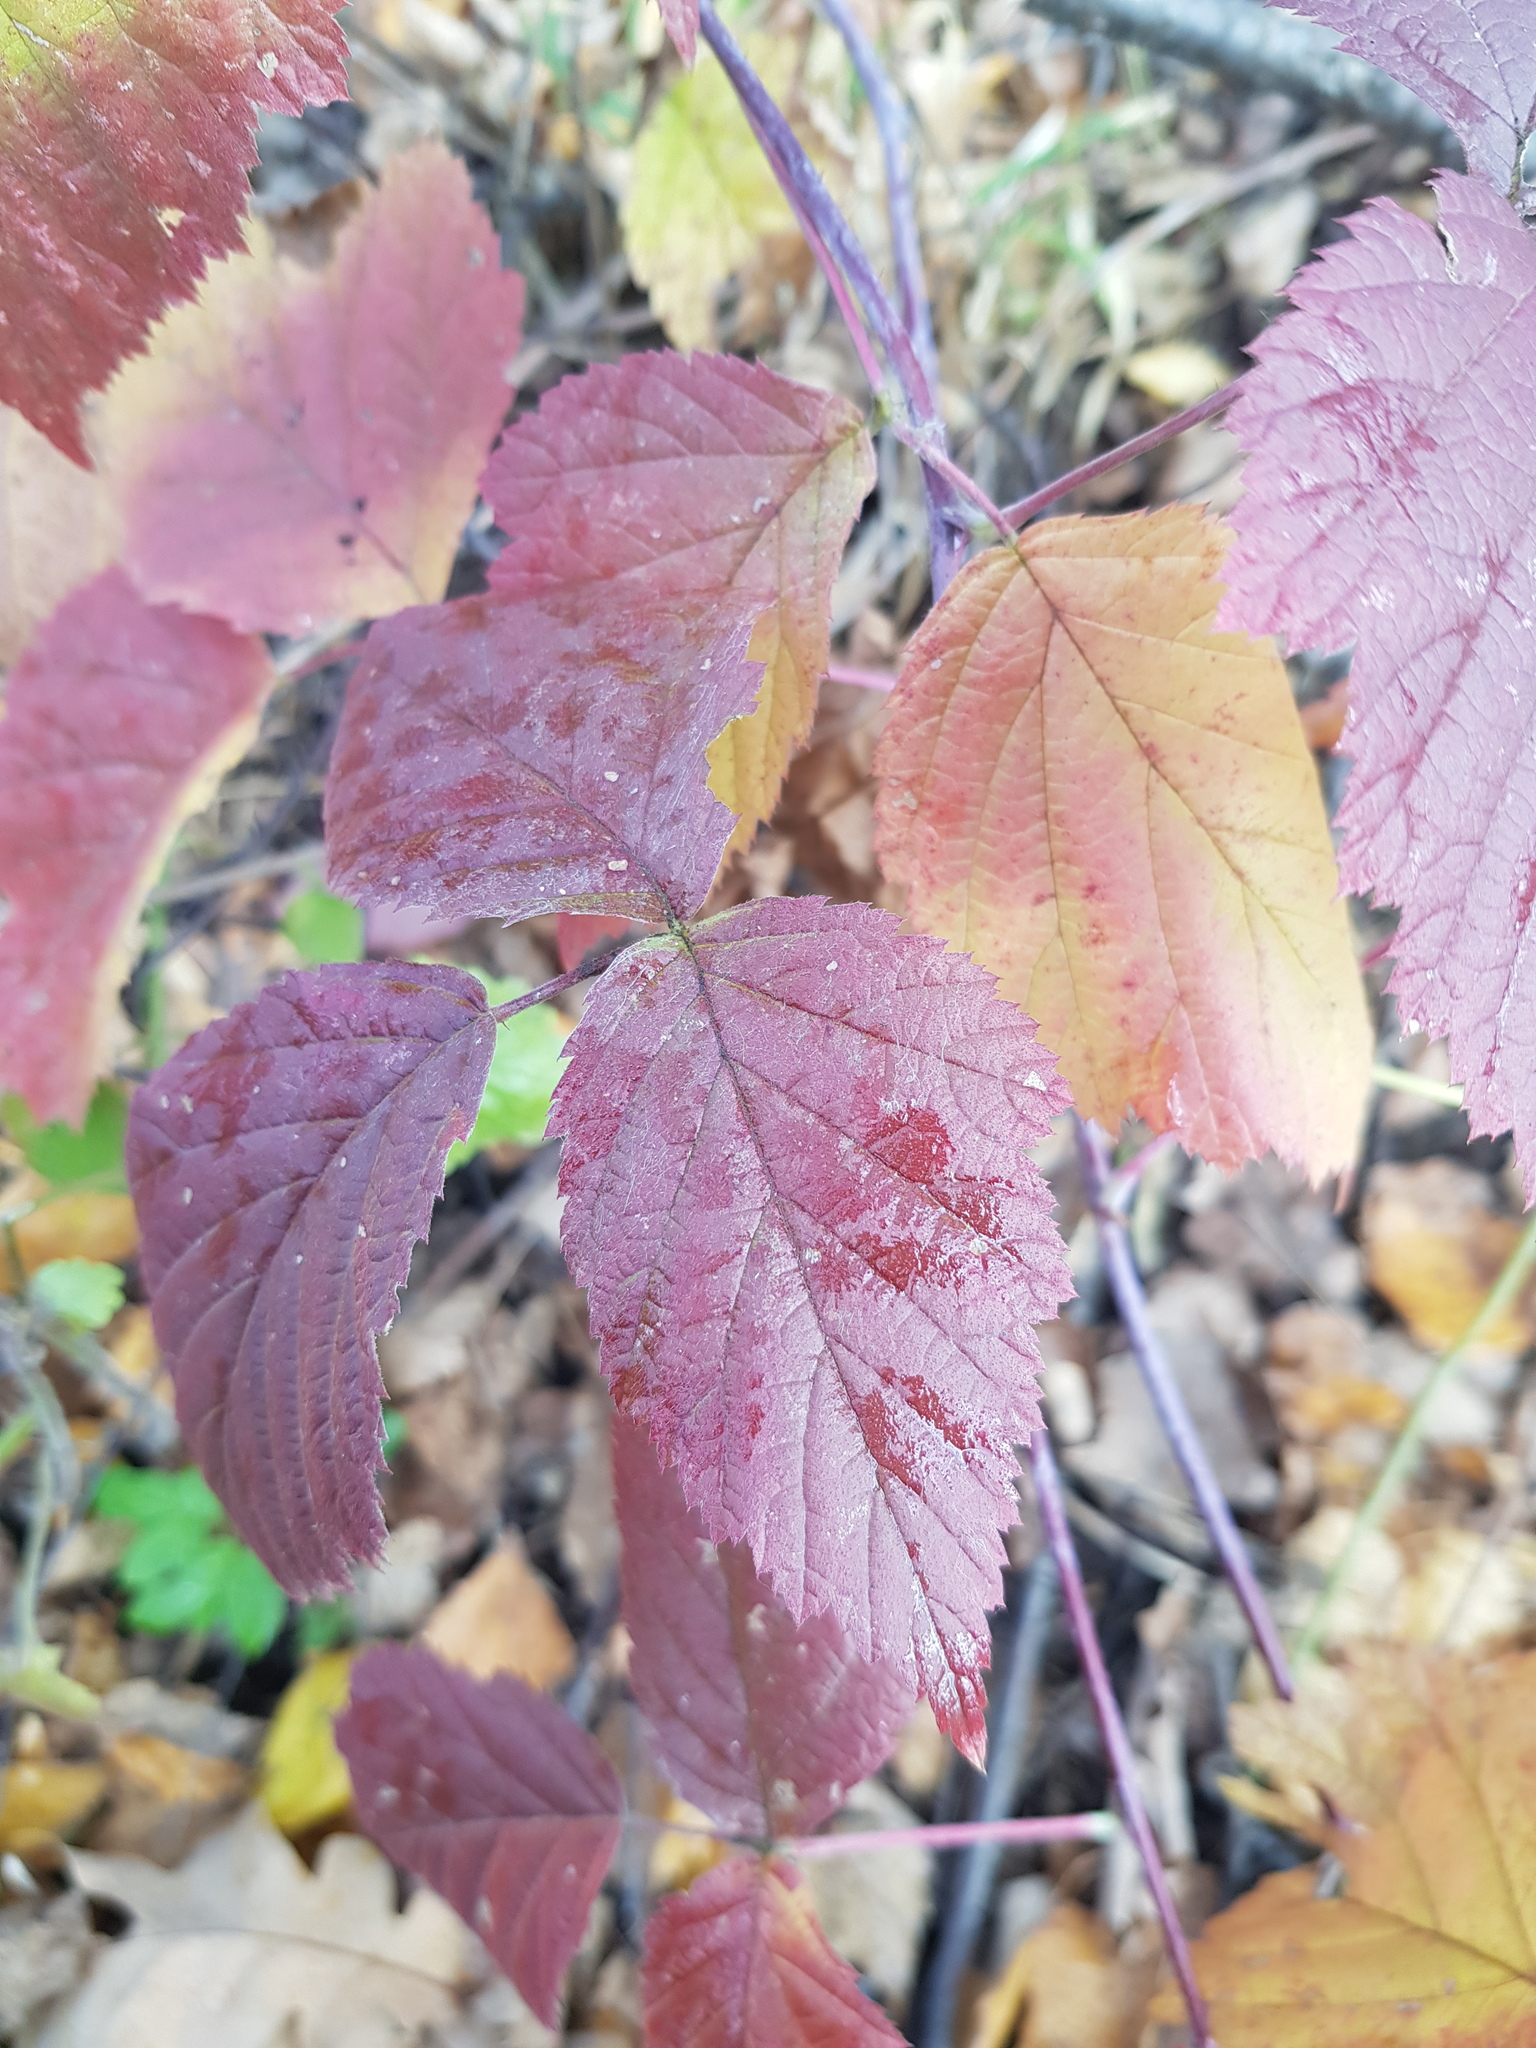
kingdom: Plantae
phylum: Tracheophyta
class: Magnoliopsida
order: Rosales
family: Rosaceae
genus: Rubus
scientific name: Rubus caesius
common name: Dewberry
